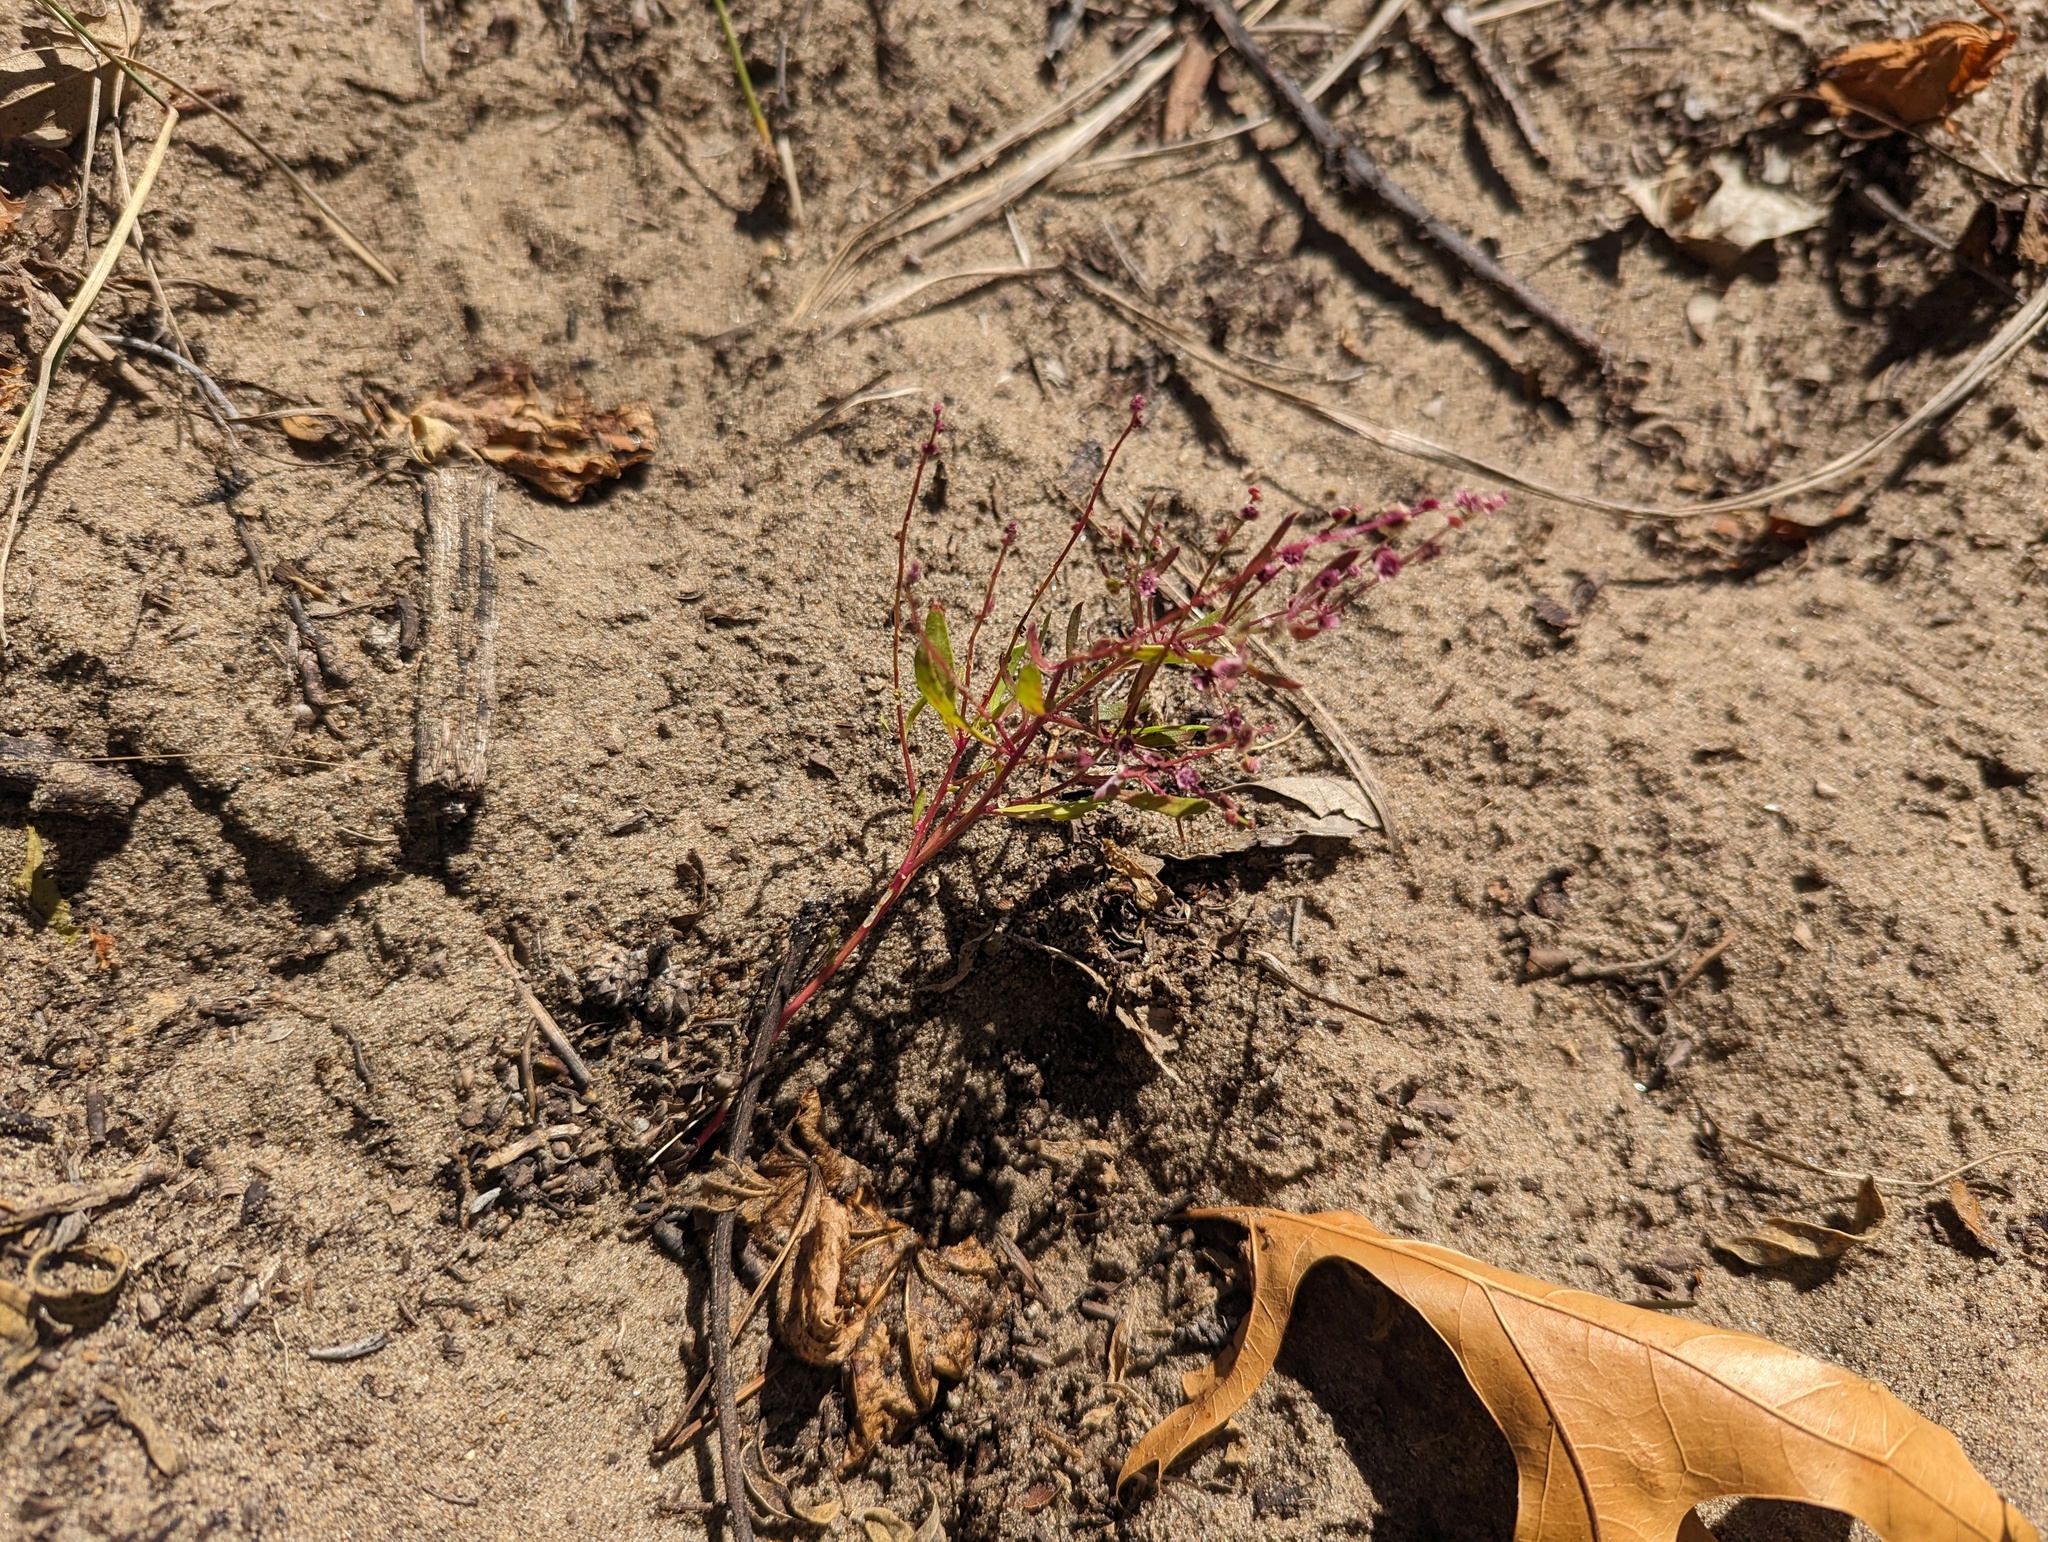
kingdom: Plantae
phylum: Tracheophyta
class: Magnoliopsida
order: Caryophyllales
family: Amaranthaceae
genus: Dysphania
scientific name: Dysphania atriplicifolia
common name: Plains tumbleweed
